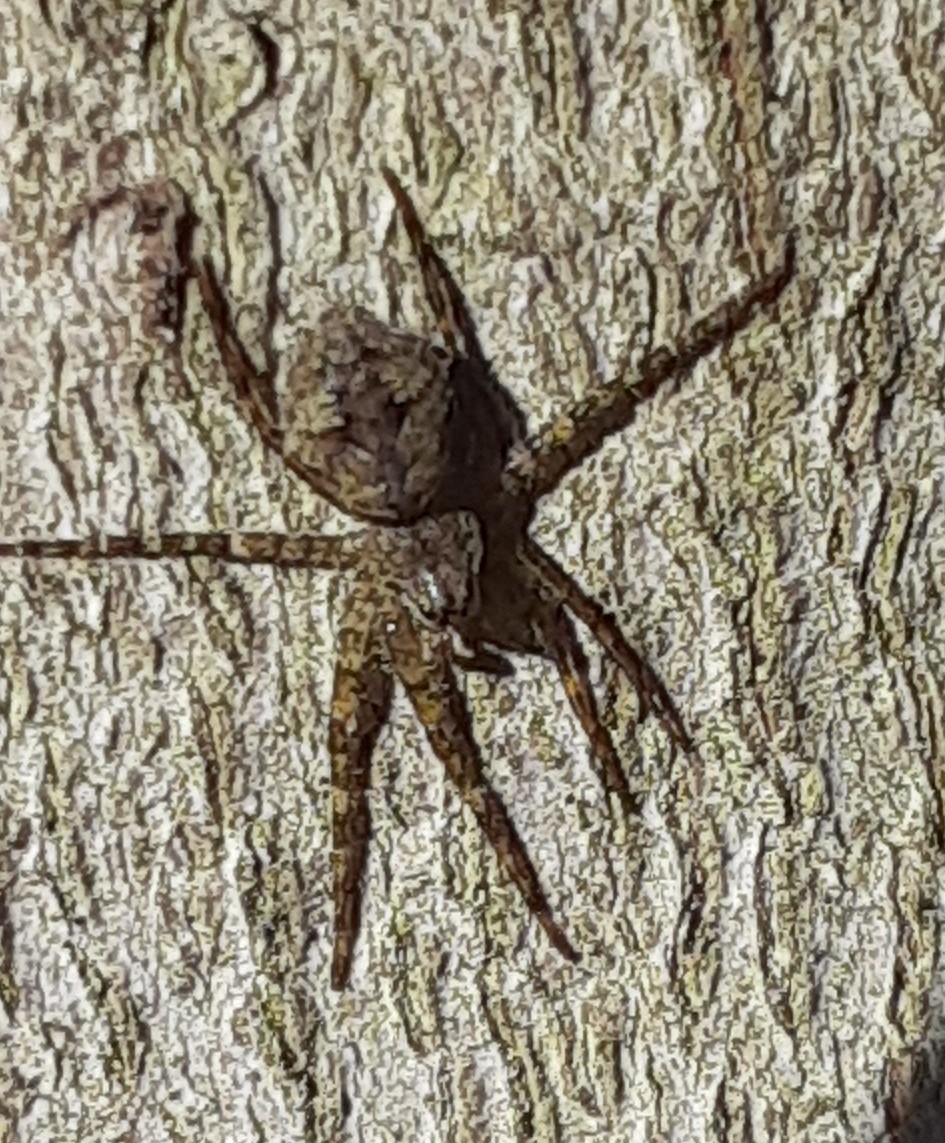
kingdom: Animalia
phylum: Arthropoda
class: Arachnida
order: Araneae
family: Pisauridae
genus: Dolomedes
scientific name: Dolomedes albineus
